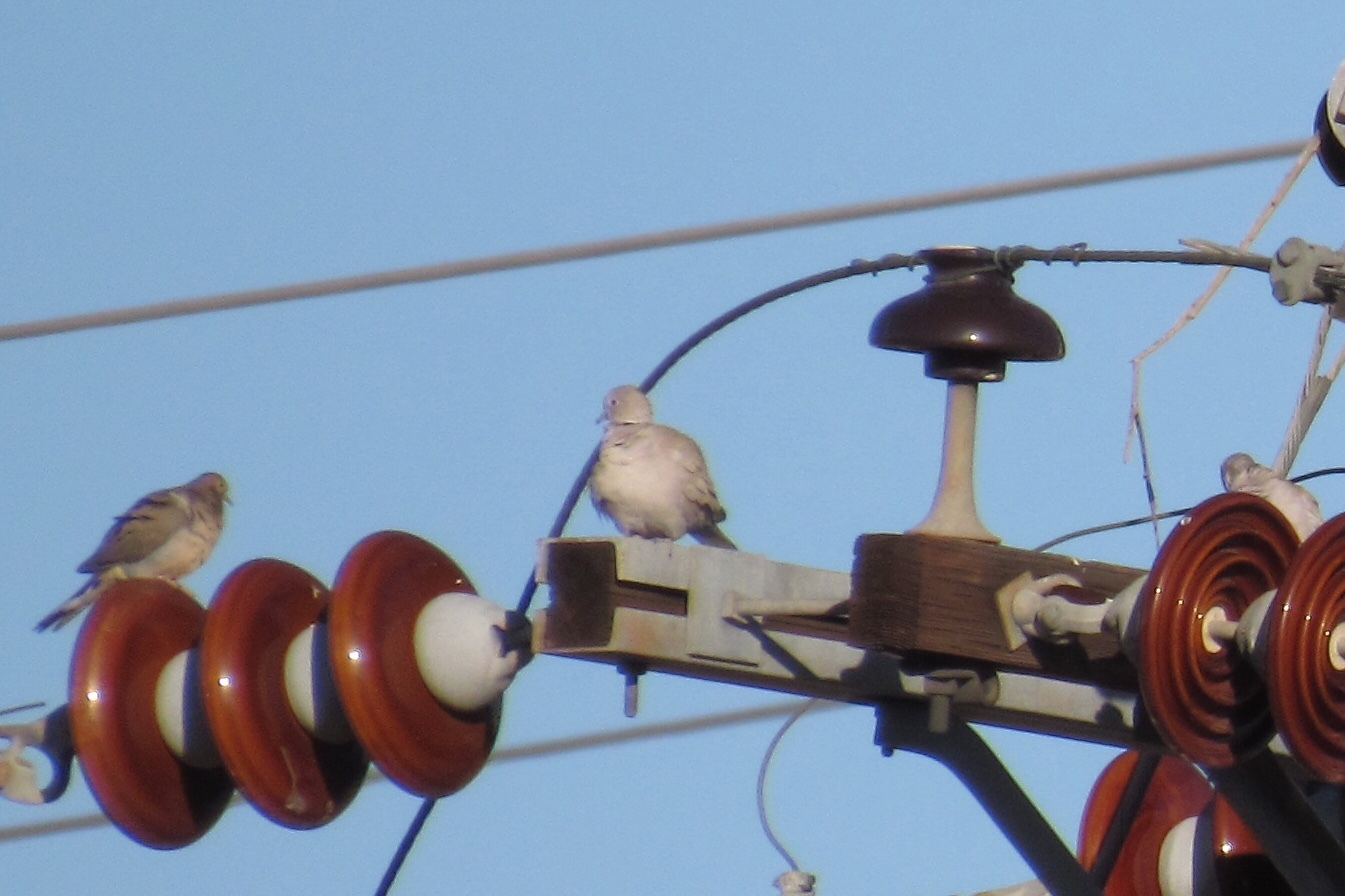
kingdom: Animalia
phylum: Chordata
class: Aves
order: Columbiformes
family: Columbidae
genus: Streptopelia
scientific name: Streptopelia decaocto
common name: Eurasian collared dove
